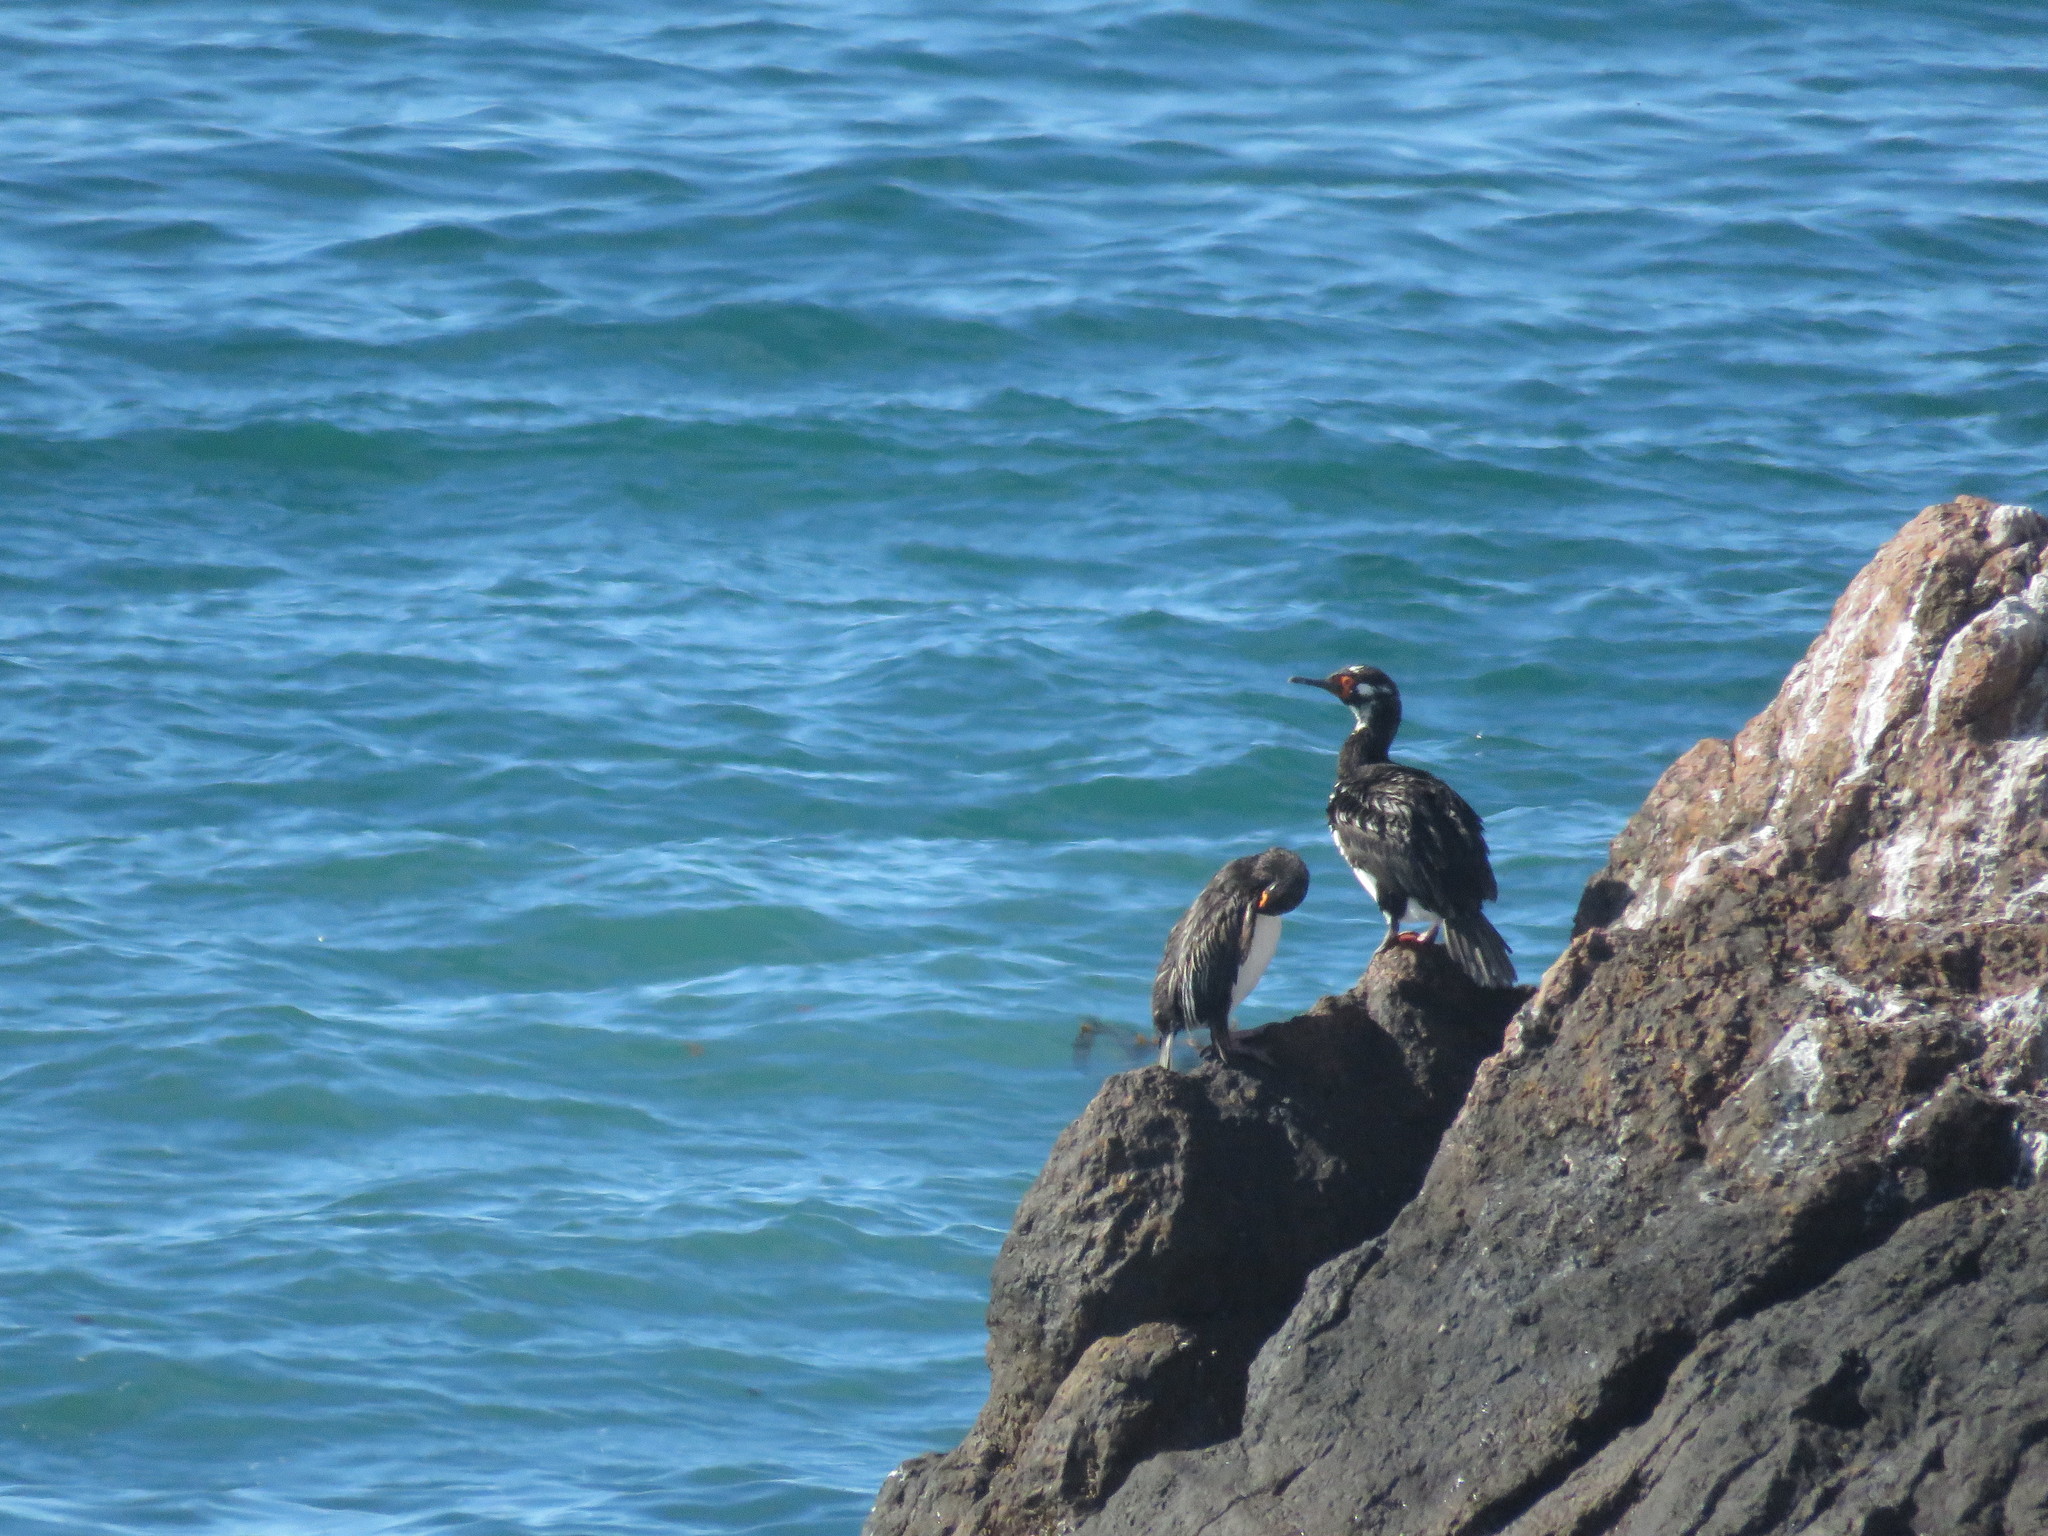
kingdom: Animalia
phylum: Chordata
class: Aves
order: Suliformes
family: Phalacrocoracidae
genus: Leucocarbo
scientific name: Leucocarbo atriceps
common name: Imperial shag
